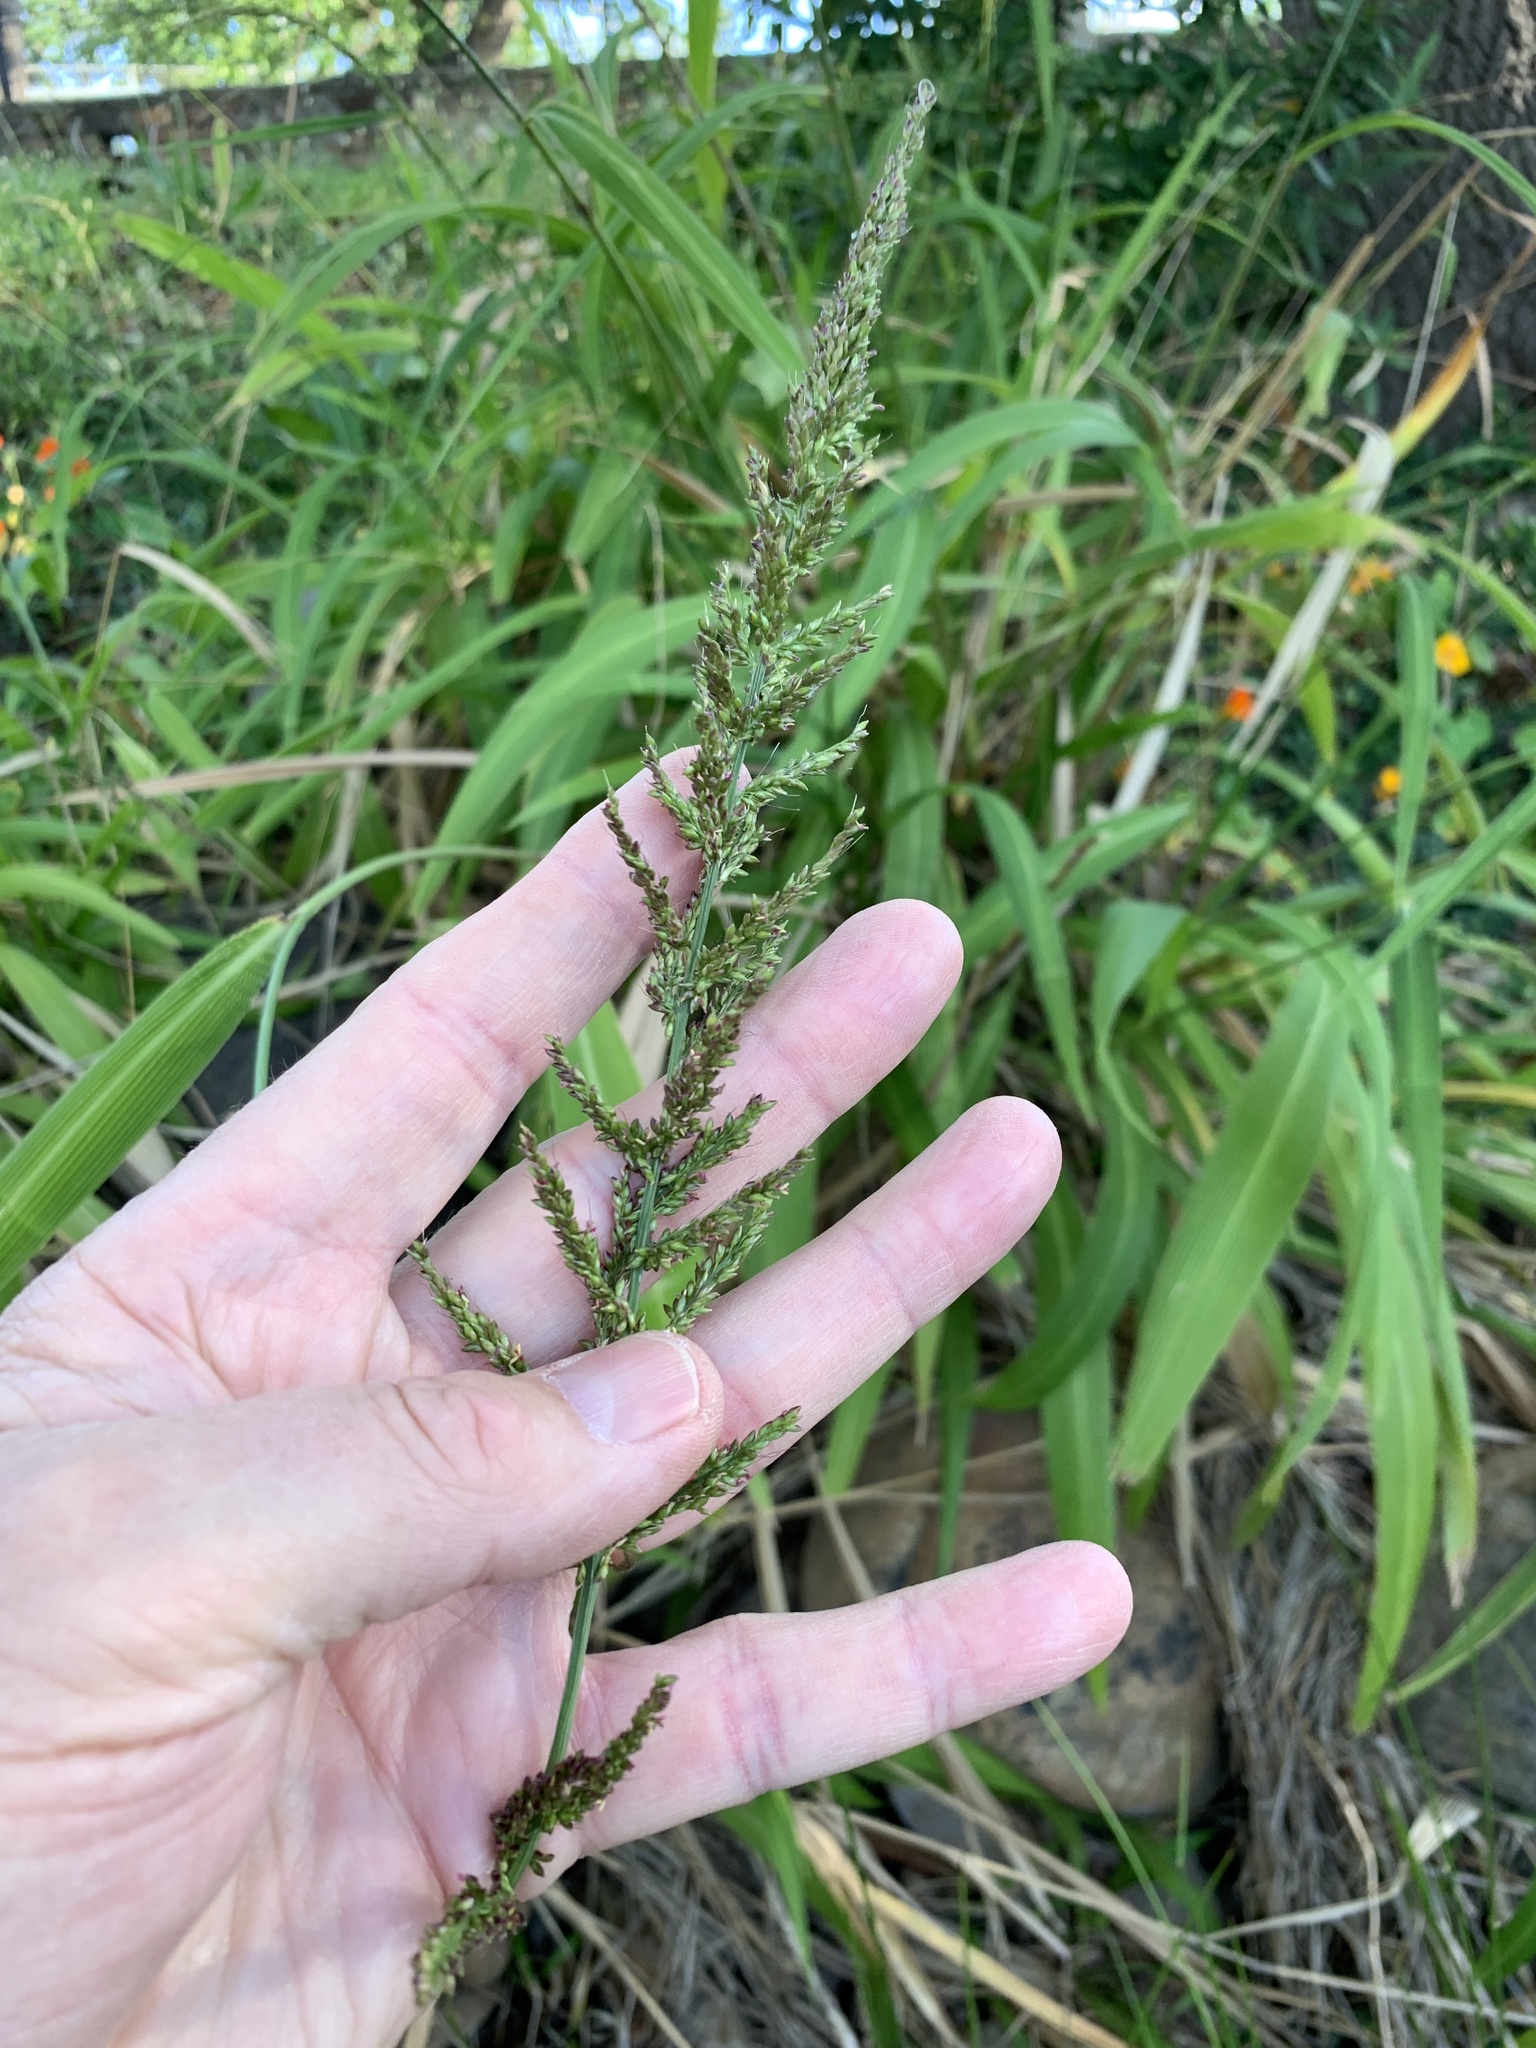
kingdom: Plantae
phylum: Tracheophyta
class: Liliopsida
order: Poales
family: Poaceae
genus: Setaria
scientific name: Setaria megaphylla
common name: Bigleaf bristlegrass
